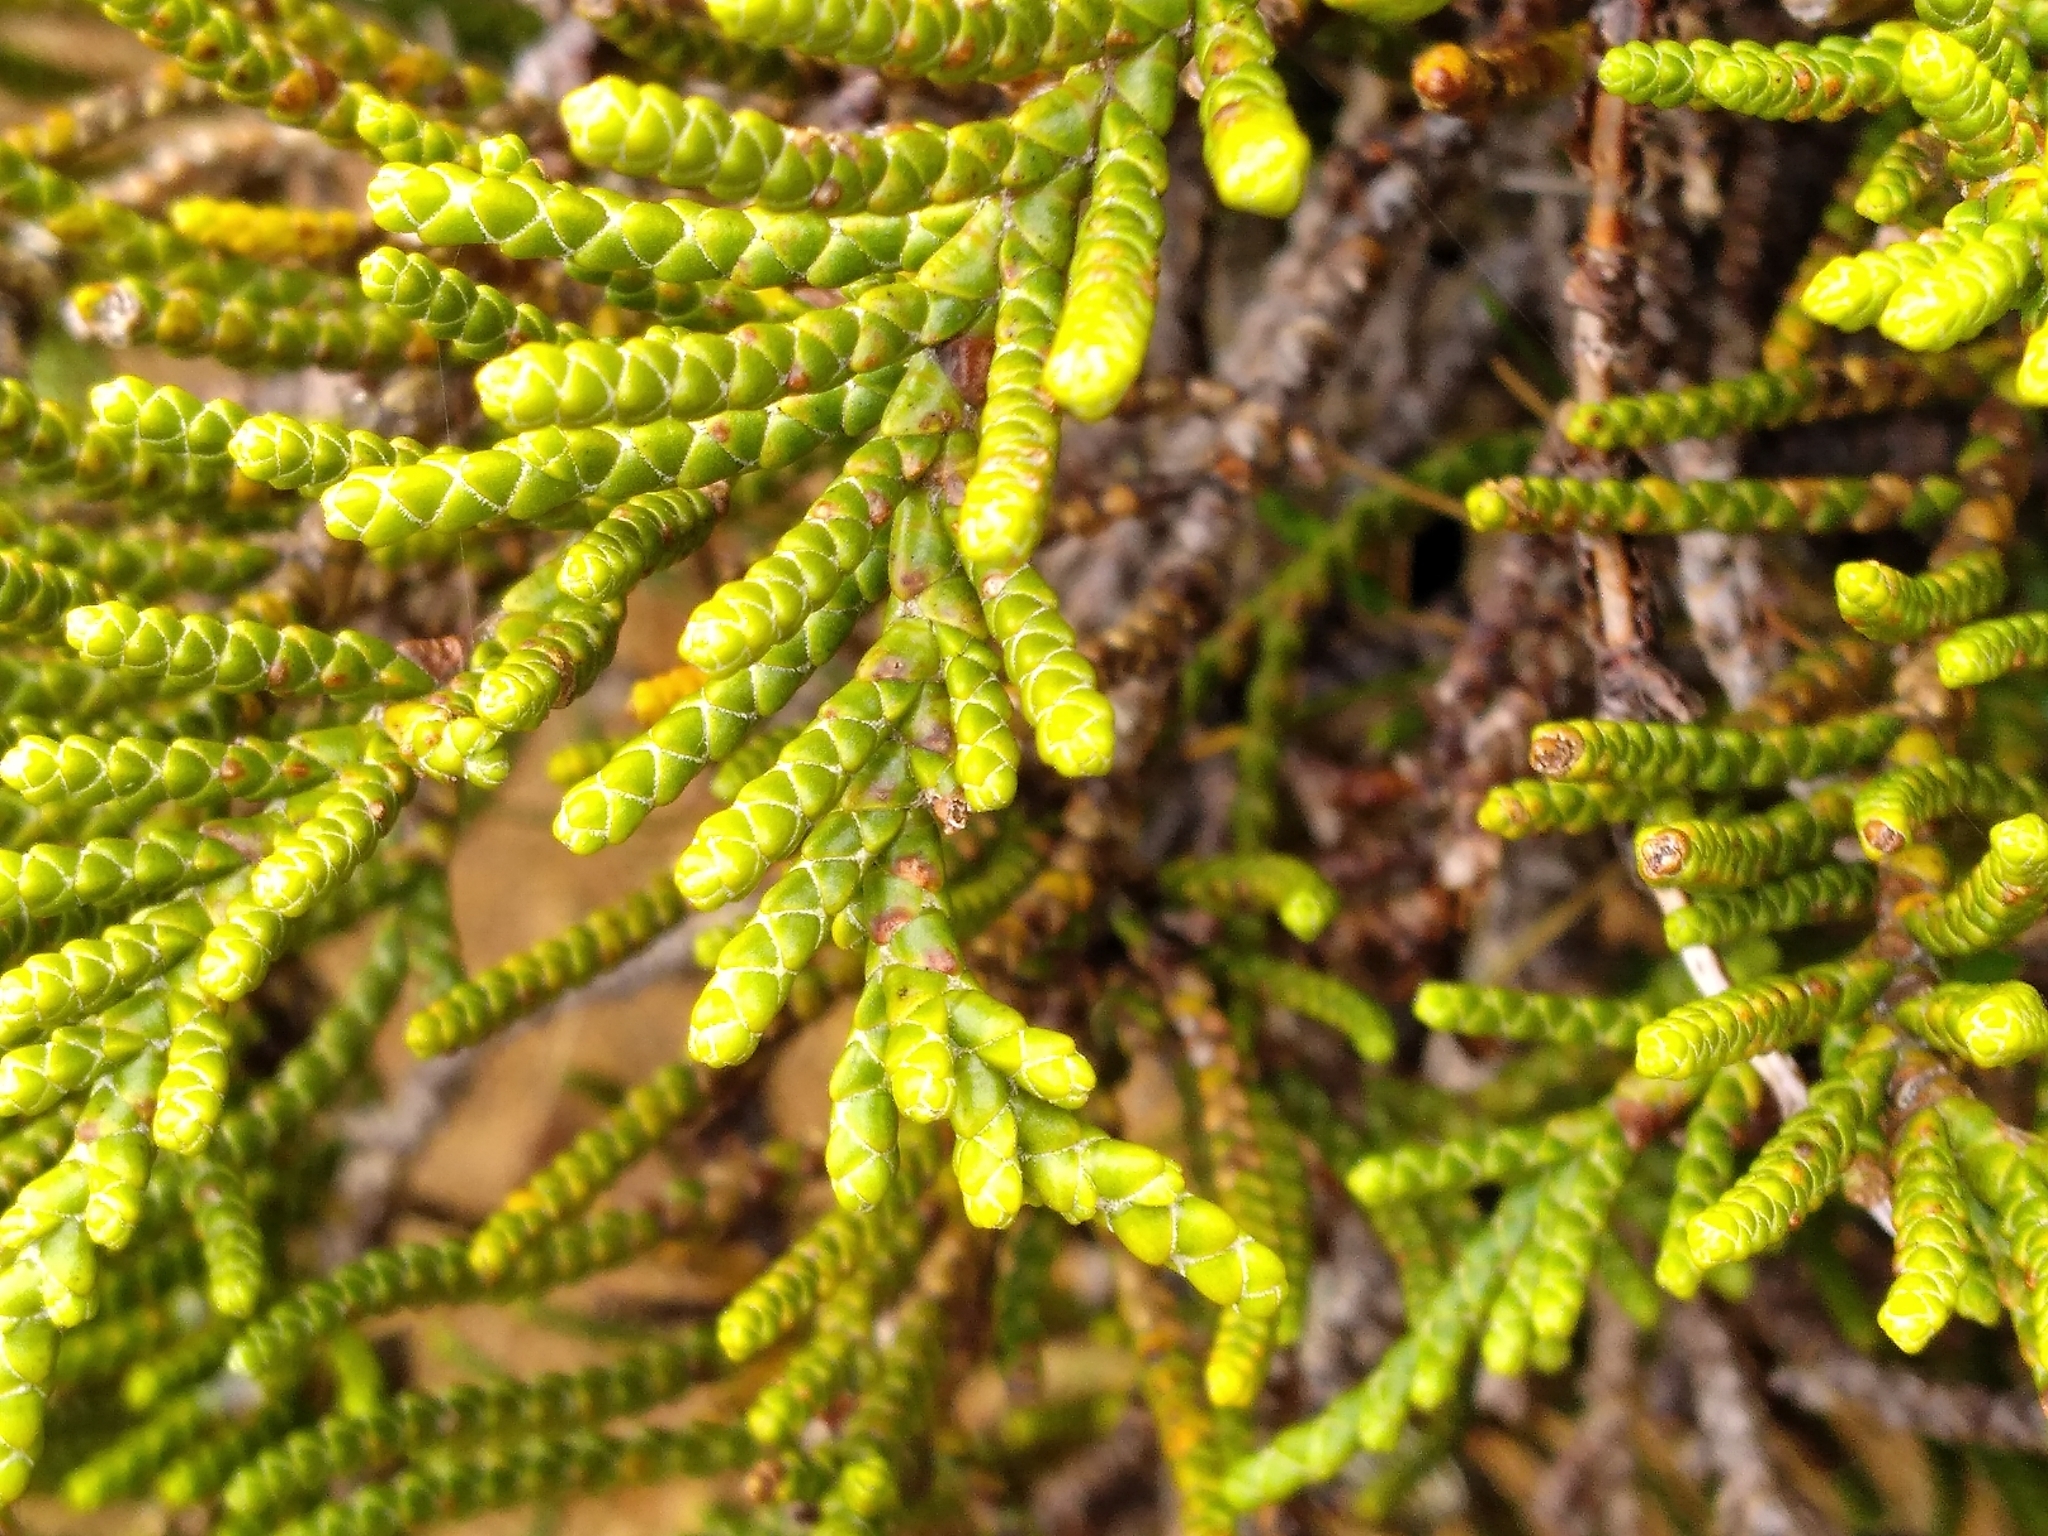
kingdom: Plantae
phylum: Tracheophyta
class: Magnoliopsida
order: Lamiales
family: Plantaginaceae
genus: Veronica
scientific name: Veronica hectorii
